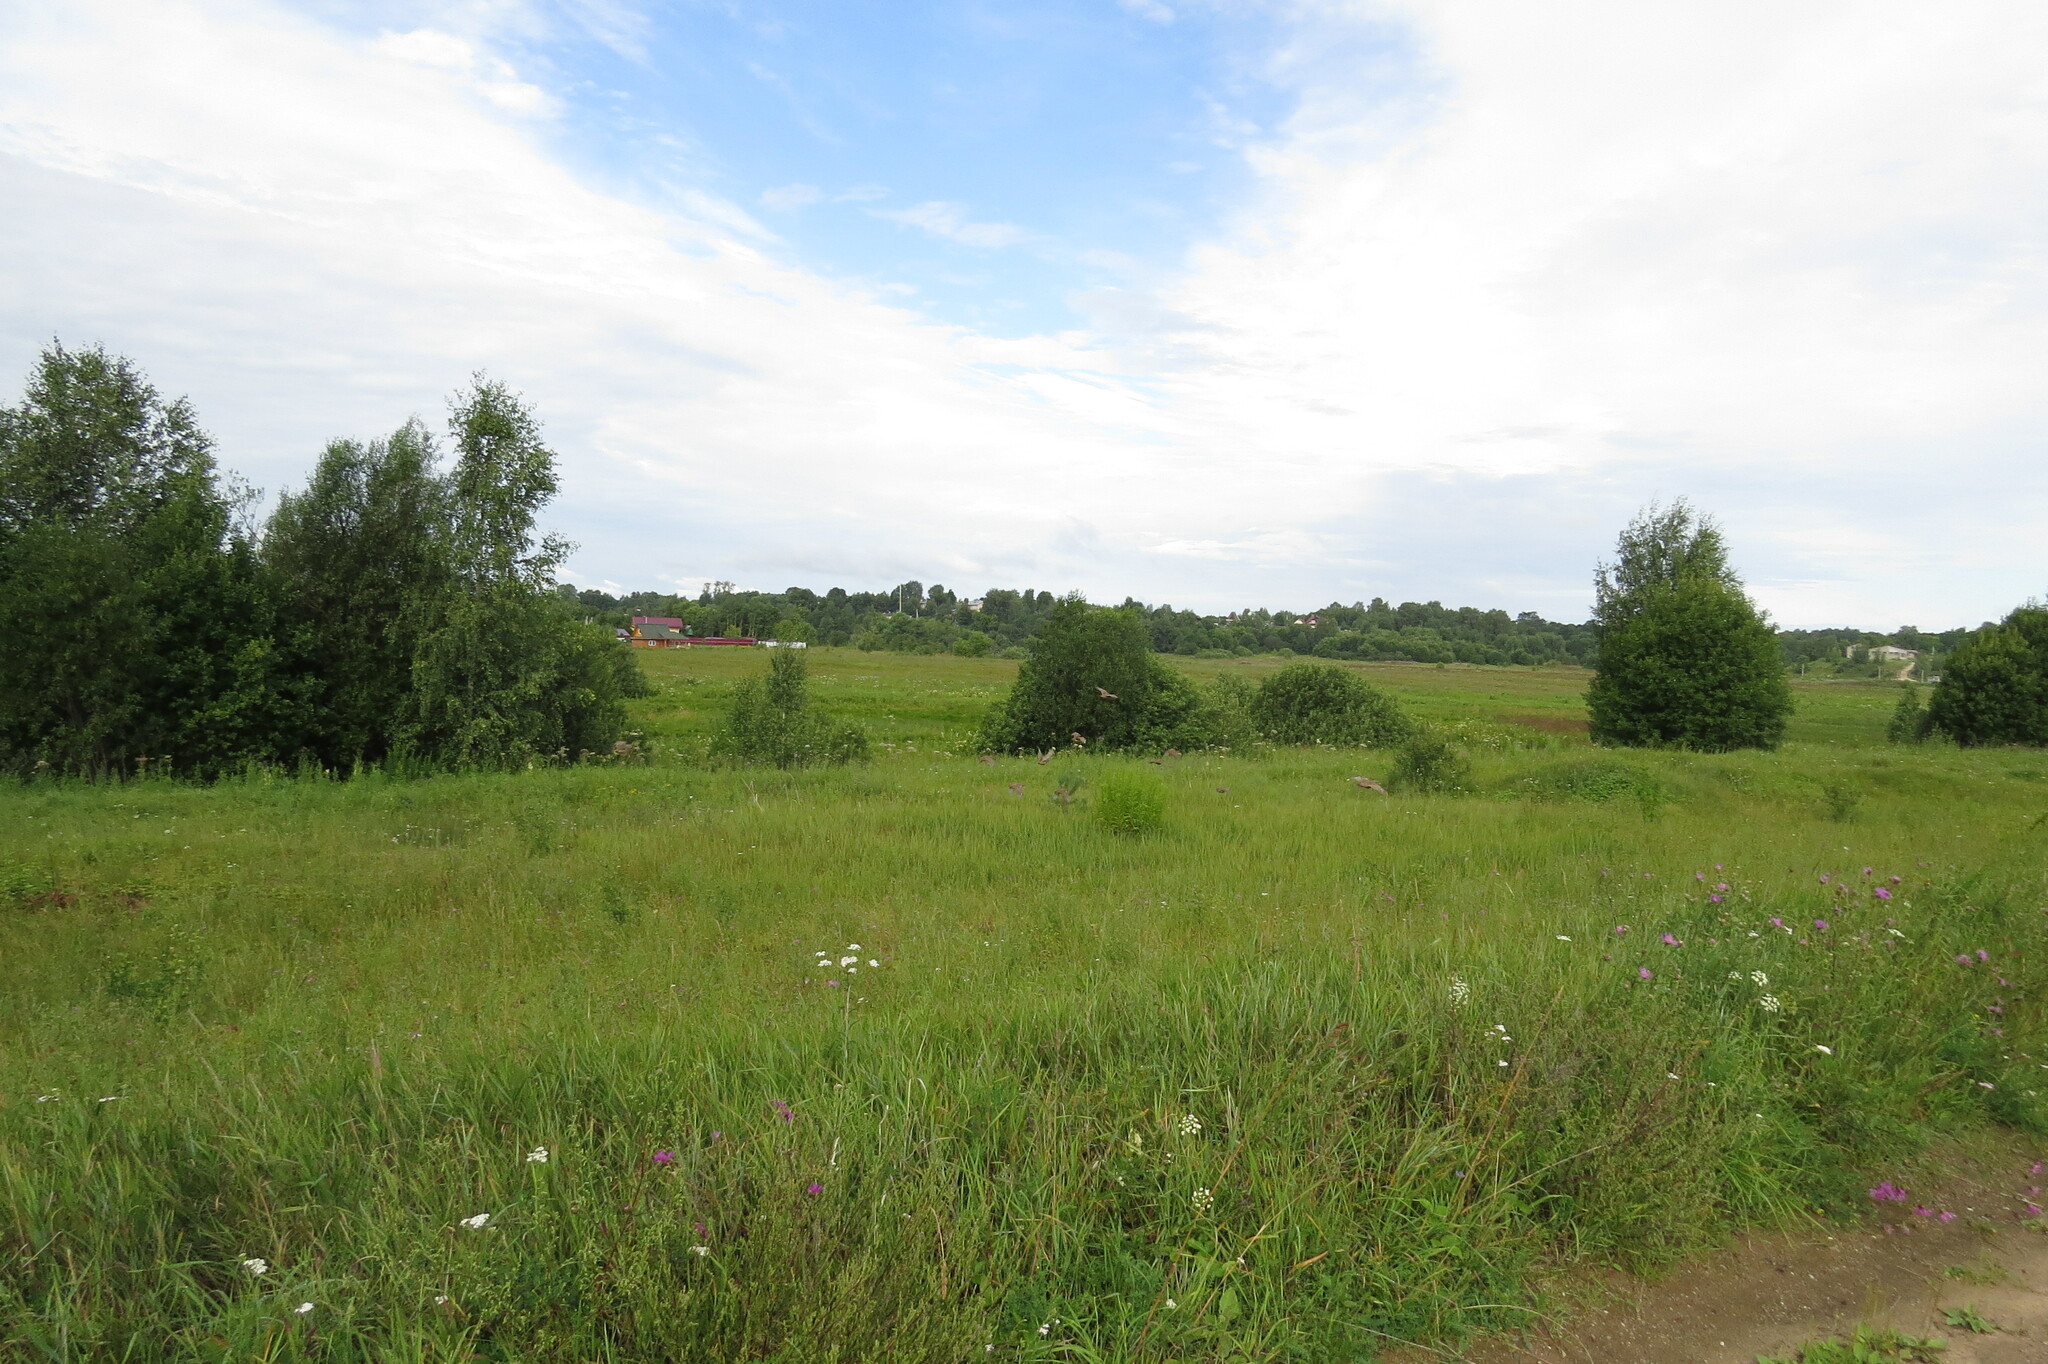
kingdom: Animalia
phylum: Chordata
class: Aves
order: Galliformes
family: Phasianidae
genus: Perdix
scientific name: Perdix perdix
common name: Grey partridge
